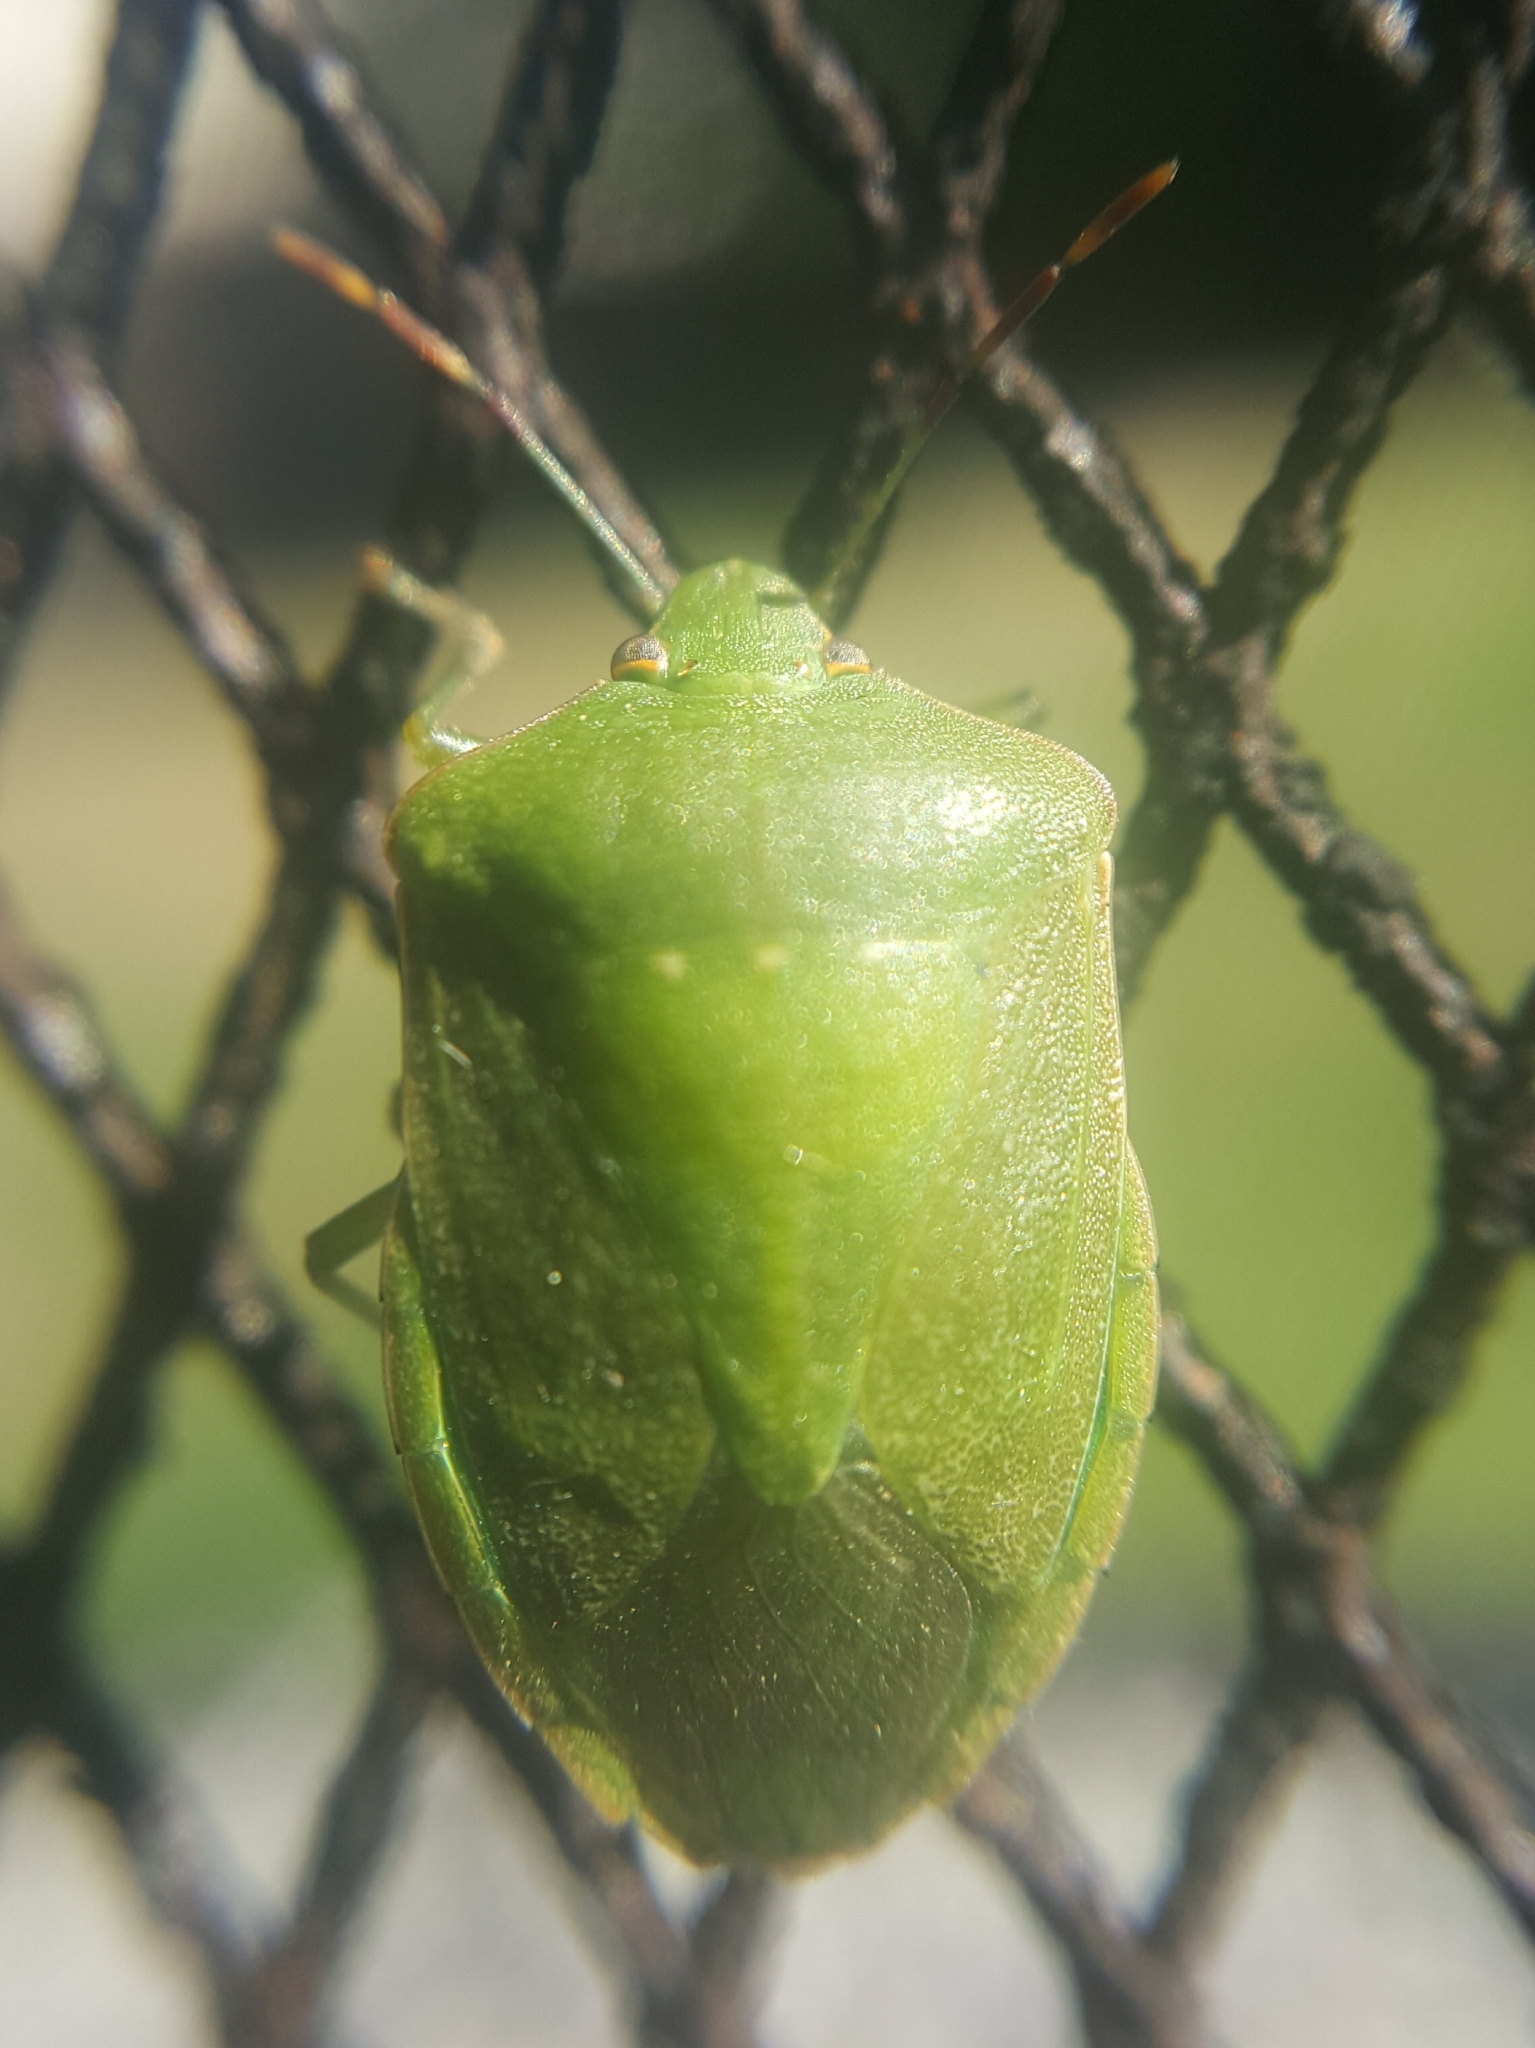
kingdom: Animalia
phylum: Arthropoda
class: Insecta
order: Hemiptera
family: Pentatomidae
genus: Nezara
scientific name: Nezara viridula
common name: Southern green stink bug
